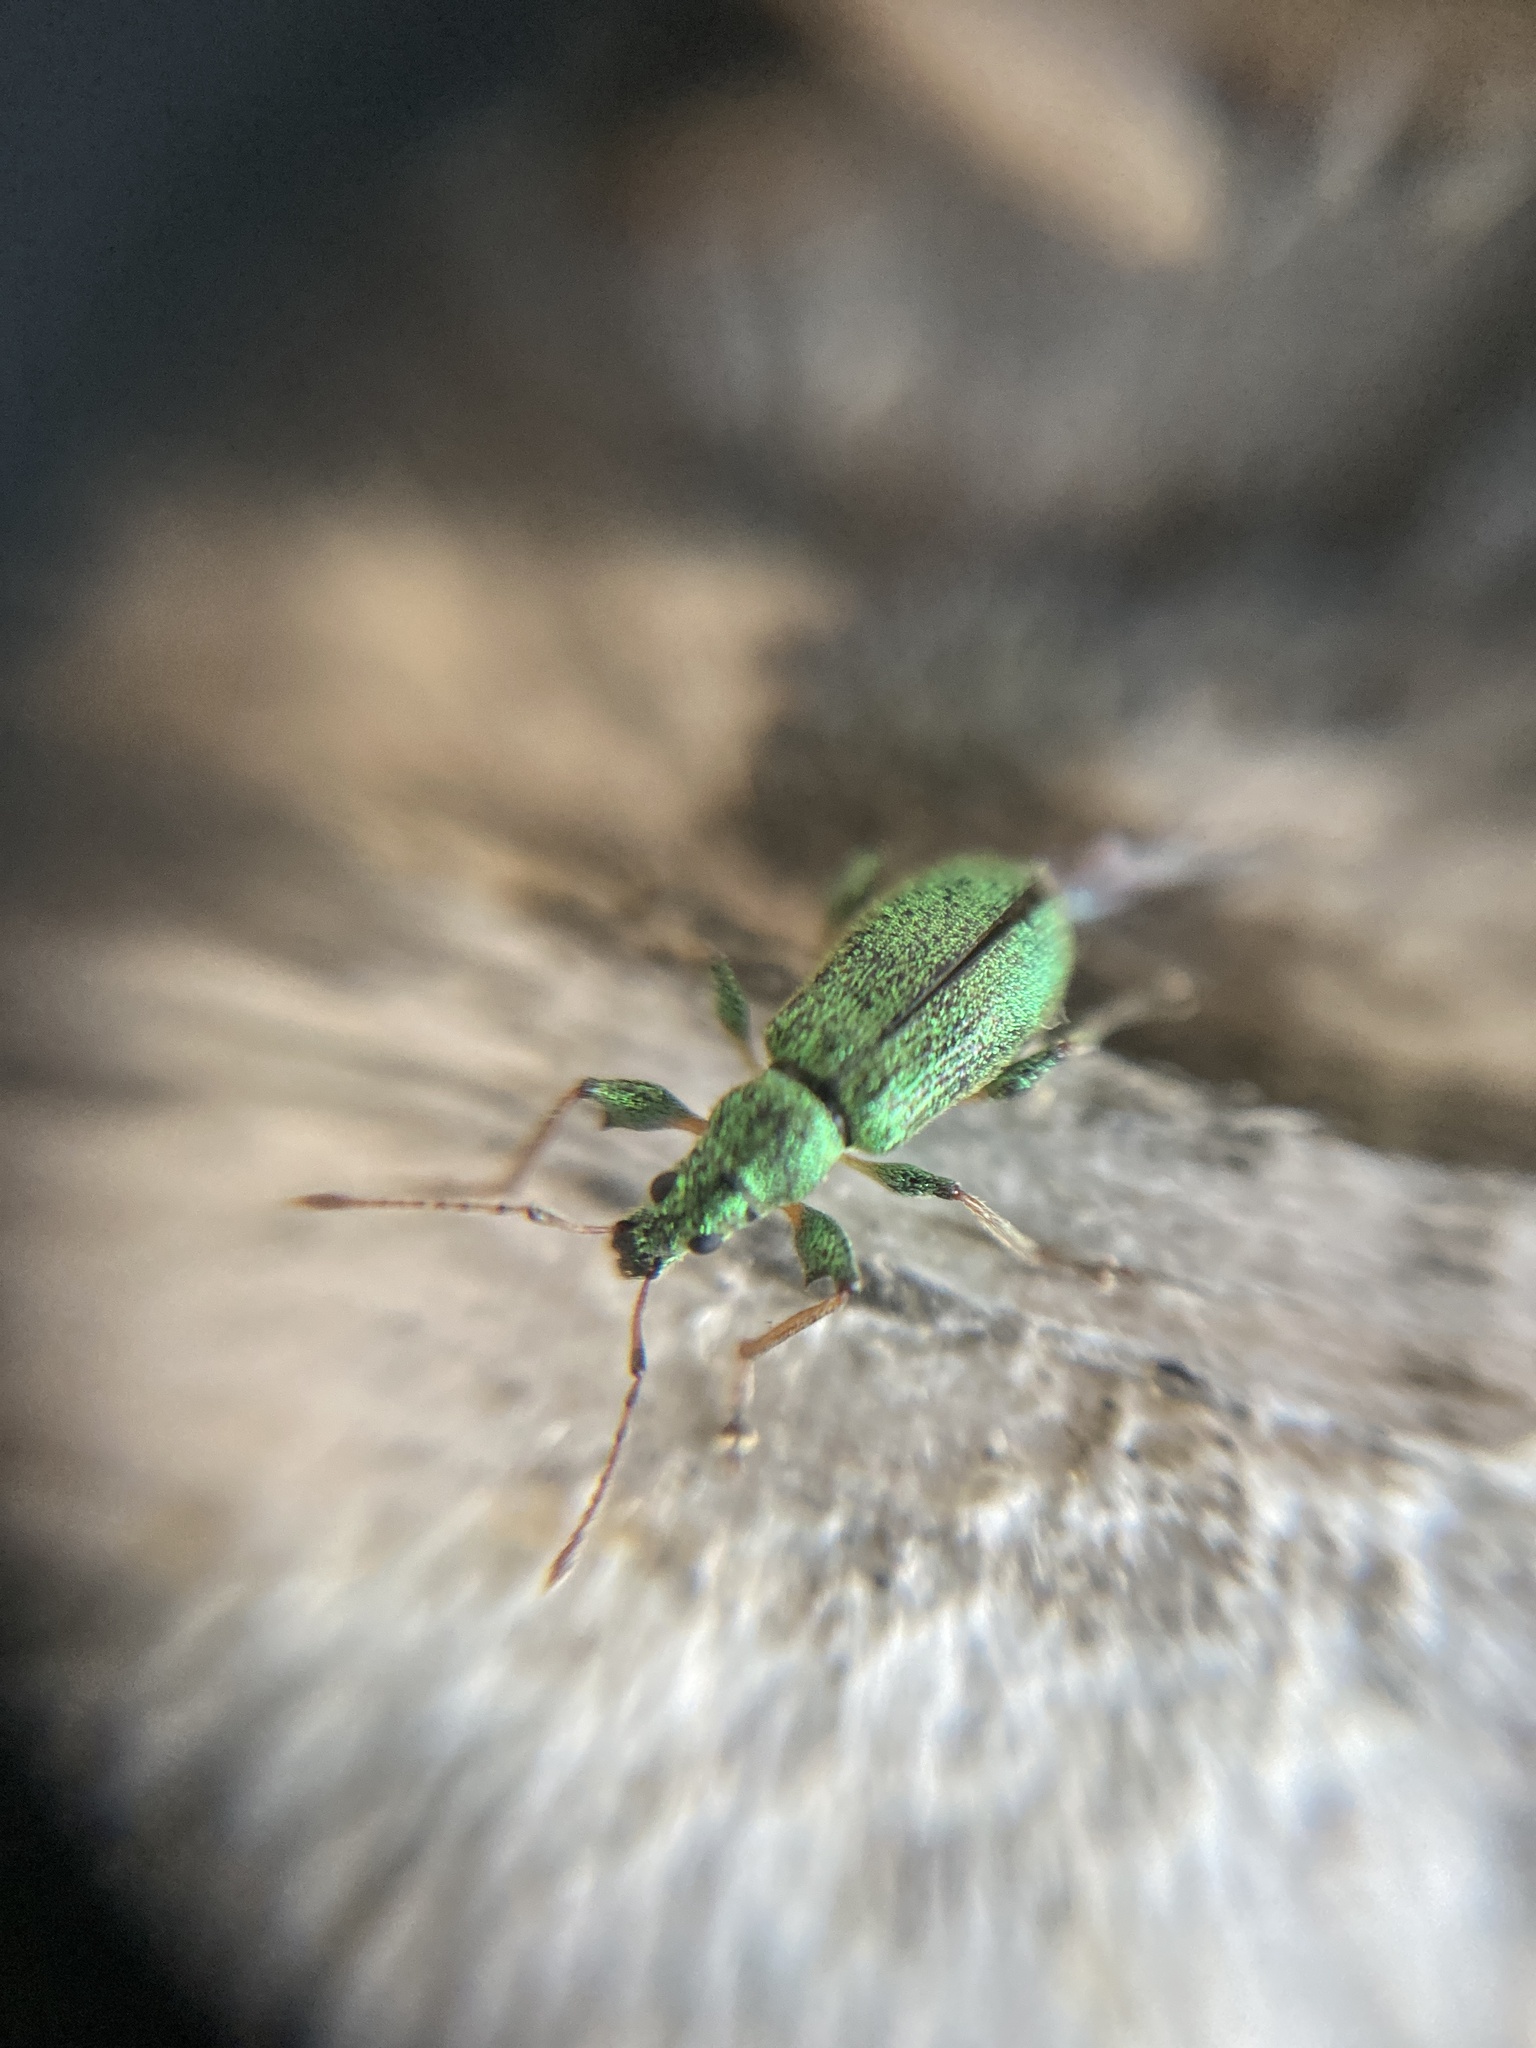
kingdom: Animalia
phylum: Arthropoda
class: Insecta
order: Coleoptera
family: Curculionidae
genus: Phyllobius
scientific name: Phyllobius arborator
